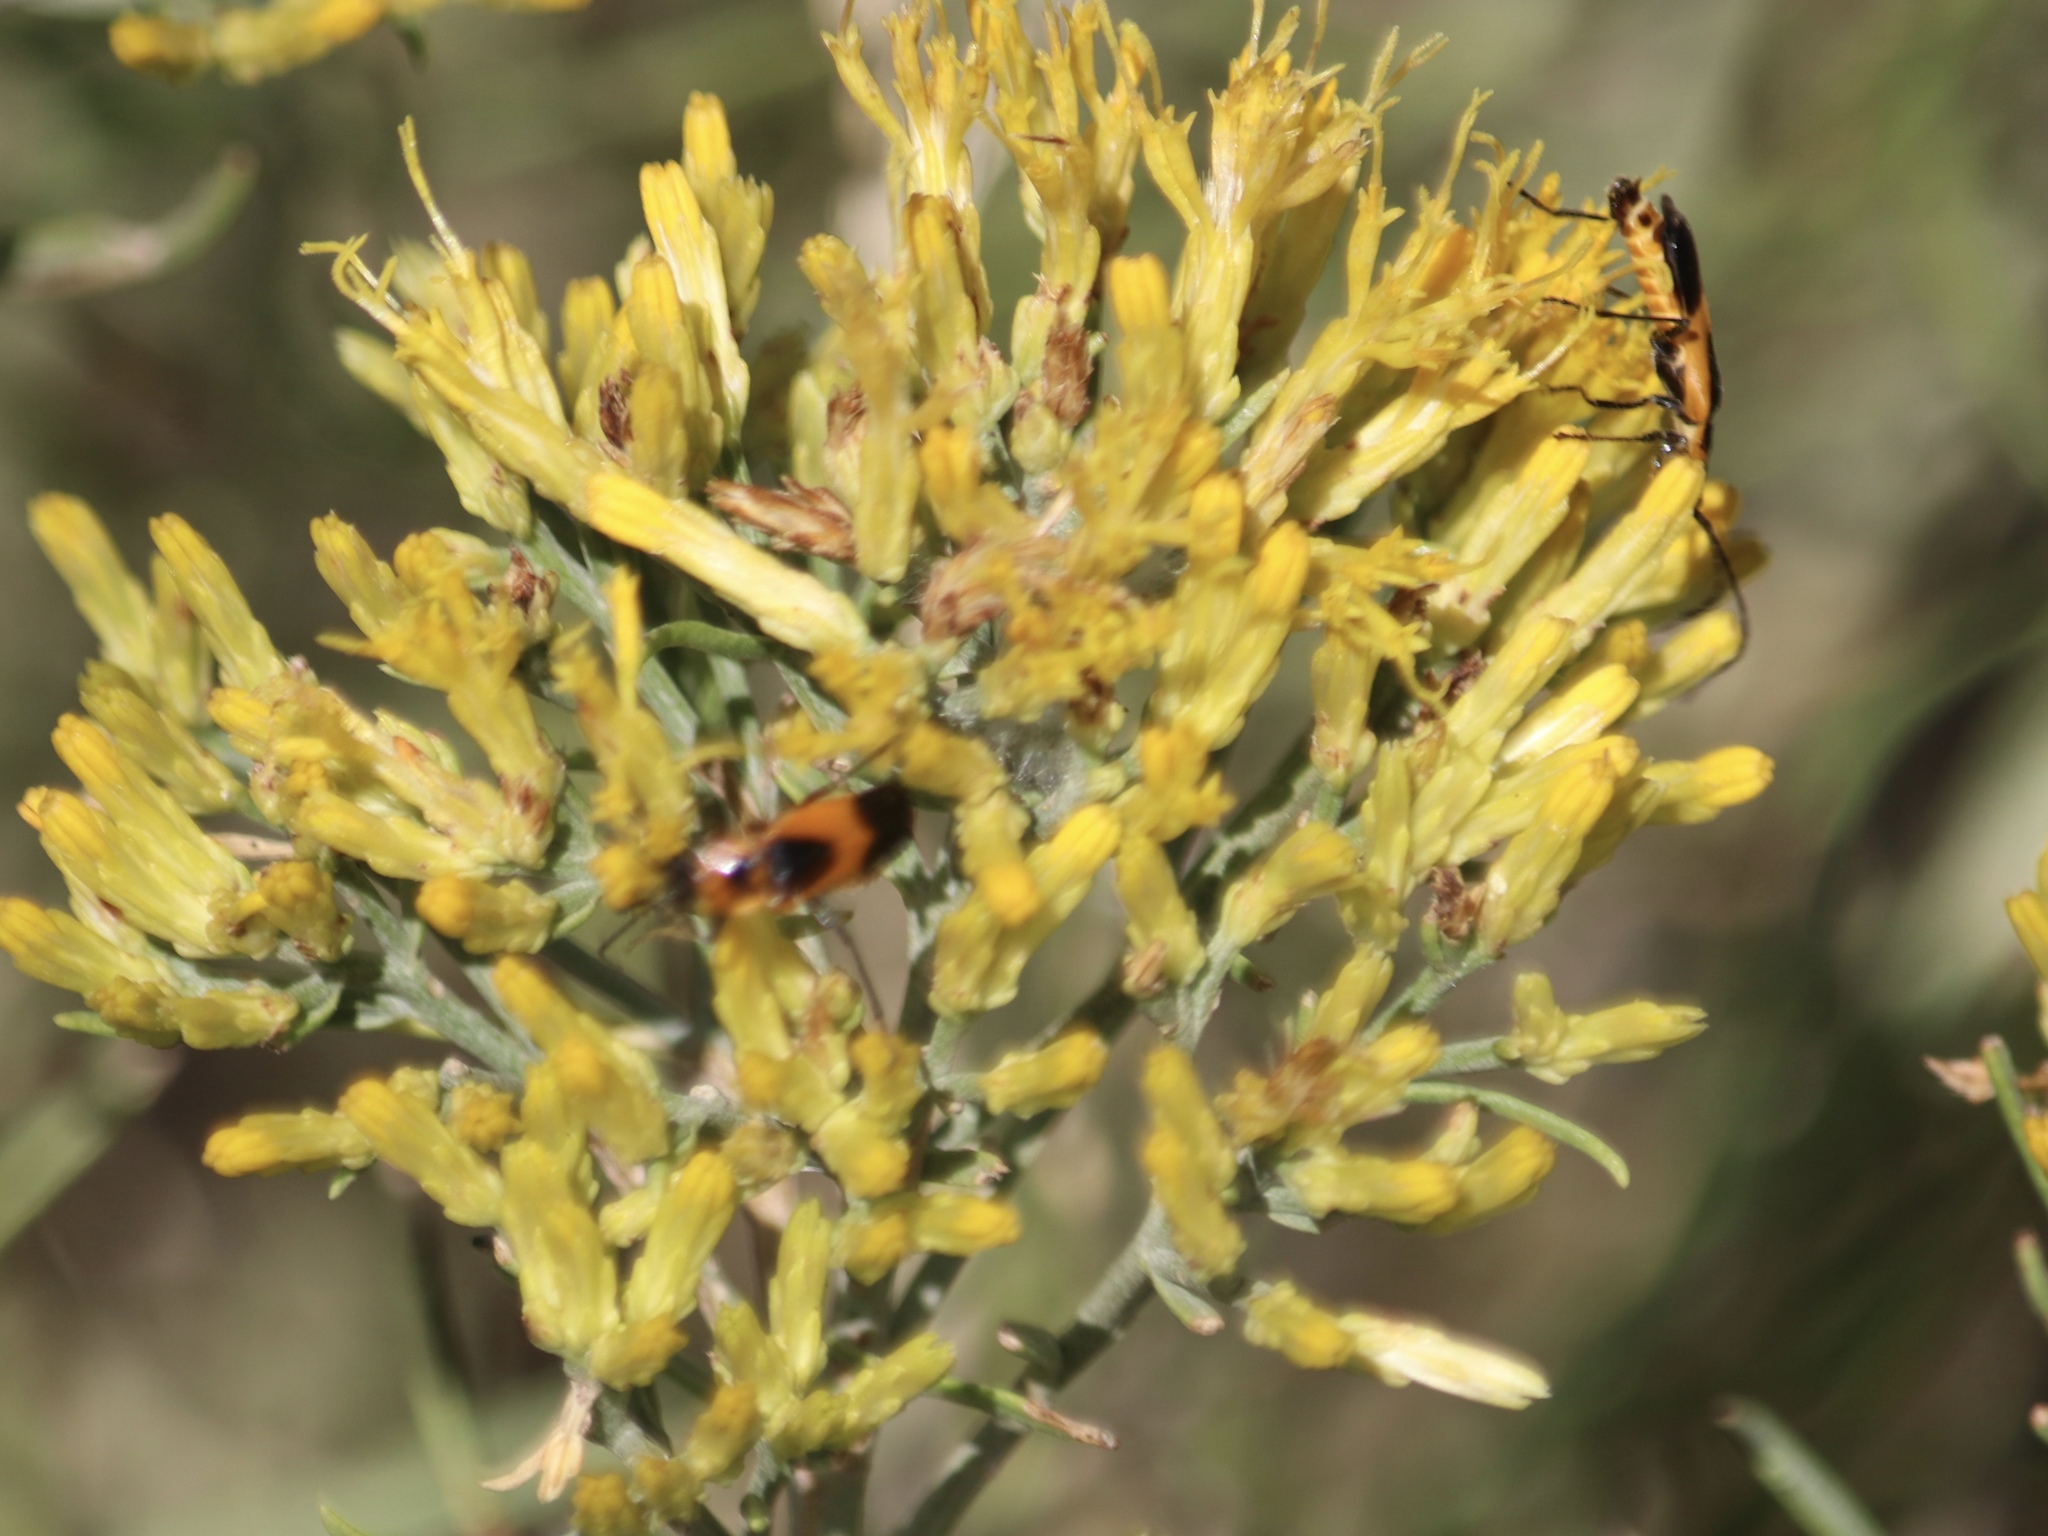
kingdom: Animalia
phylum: Arthropoda
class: Insecta
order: Coleoptera
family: Cantharidae
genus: Chauliognathus
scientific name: Chauliognathus basalis
